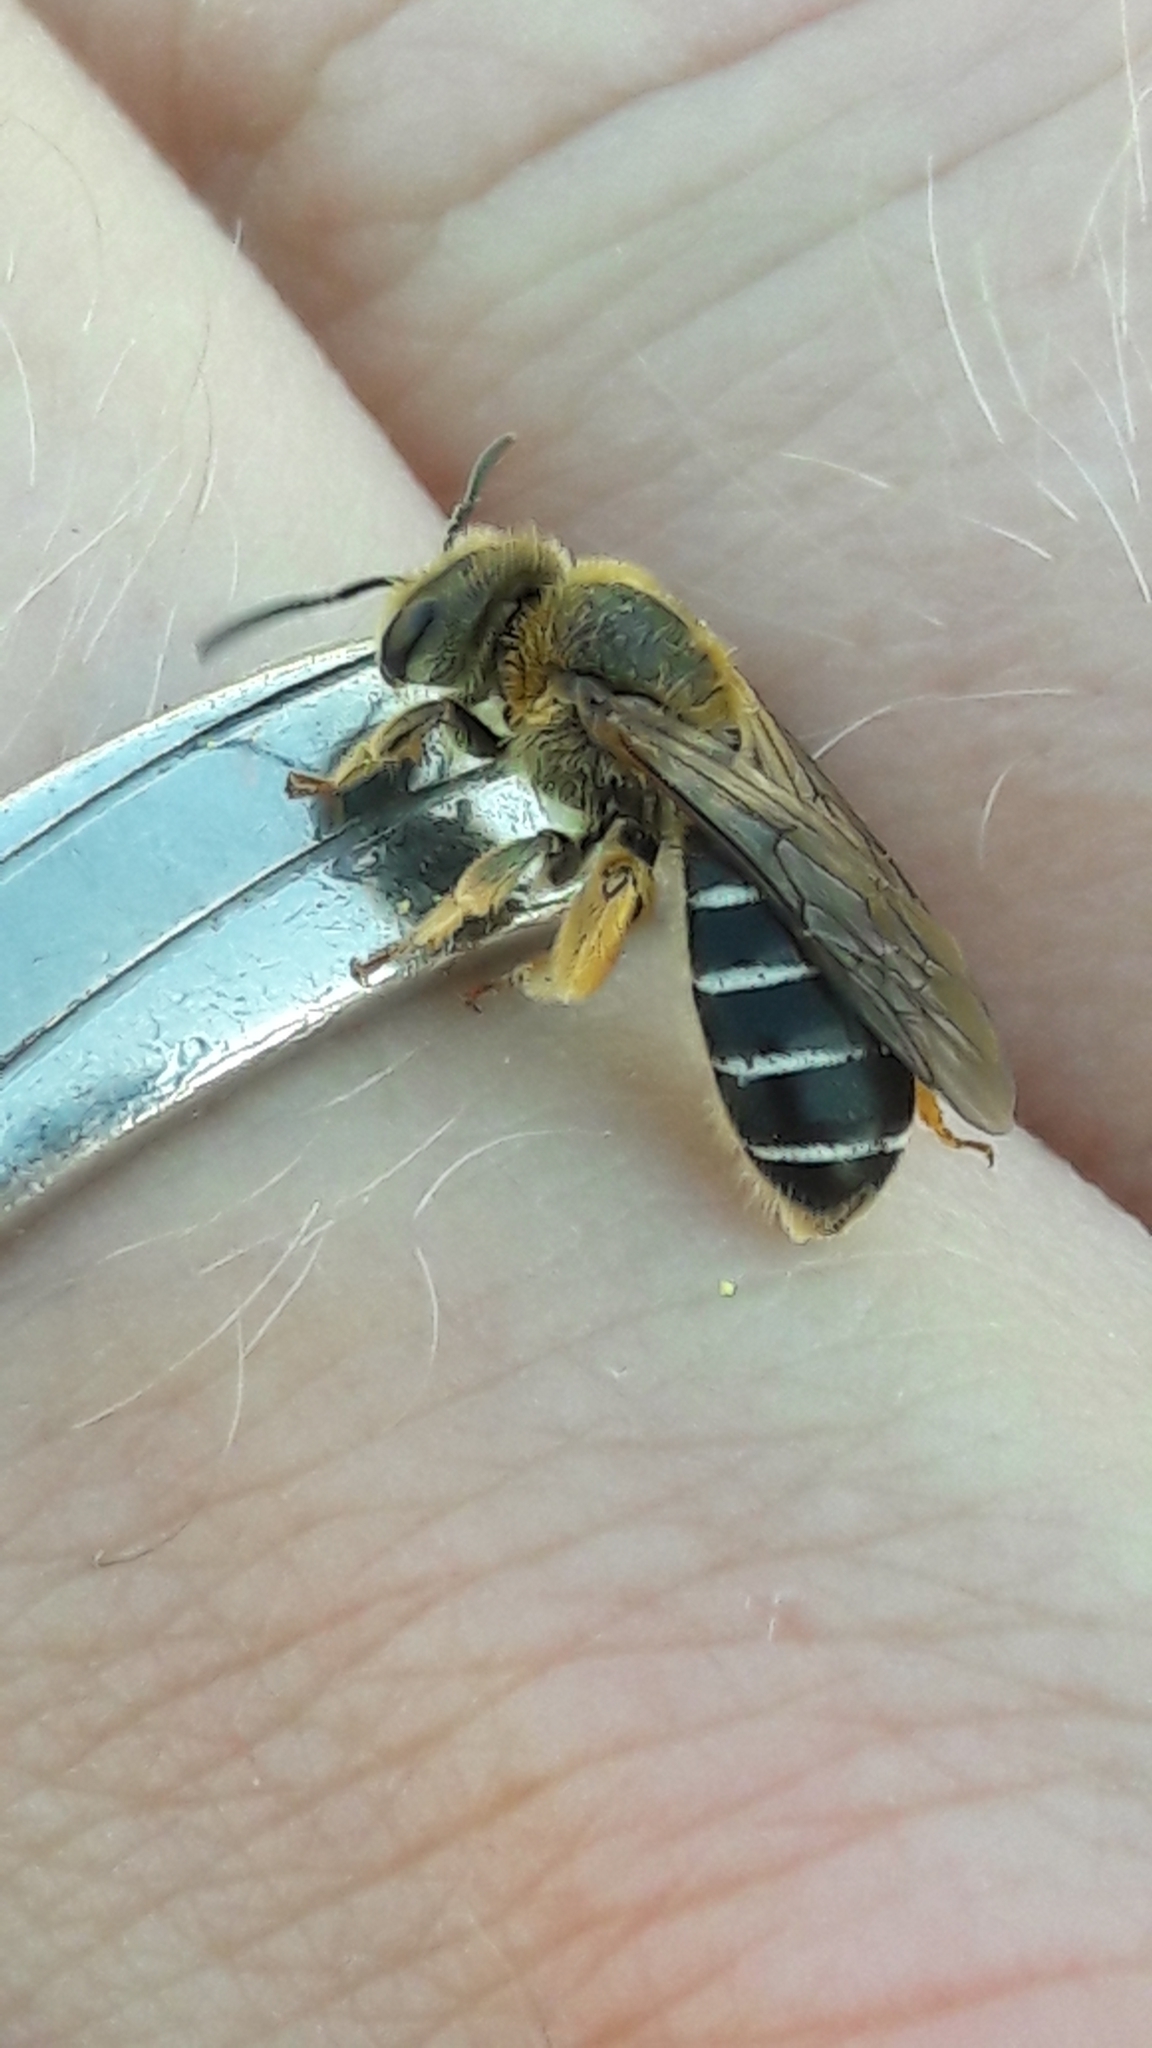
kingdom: Animalia
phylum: Arthropoda
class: Insecta
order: Hymenoptera
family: Halictidae
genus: Halictus
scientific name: Halictus rubicundus
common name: Orange-legged furrow bee
